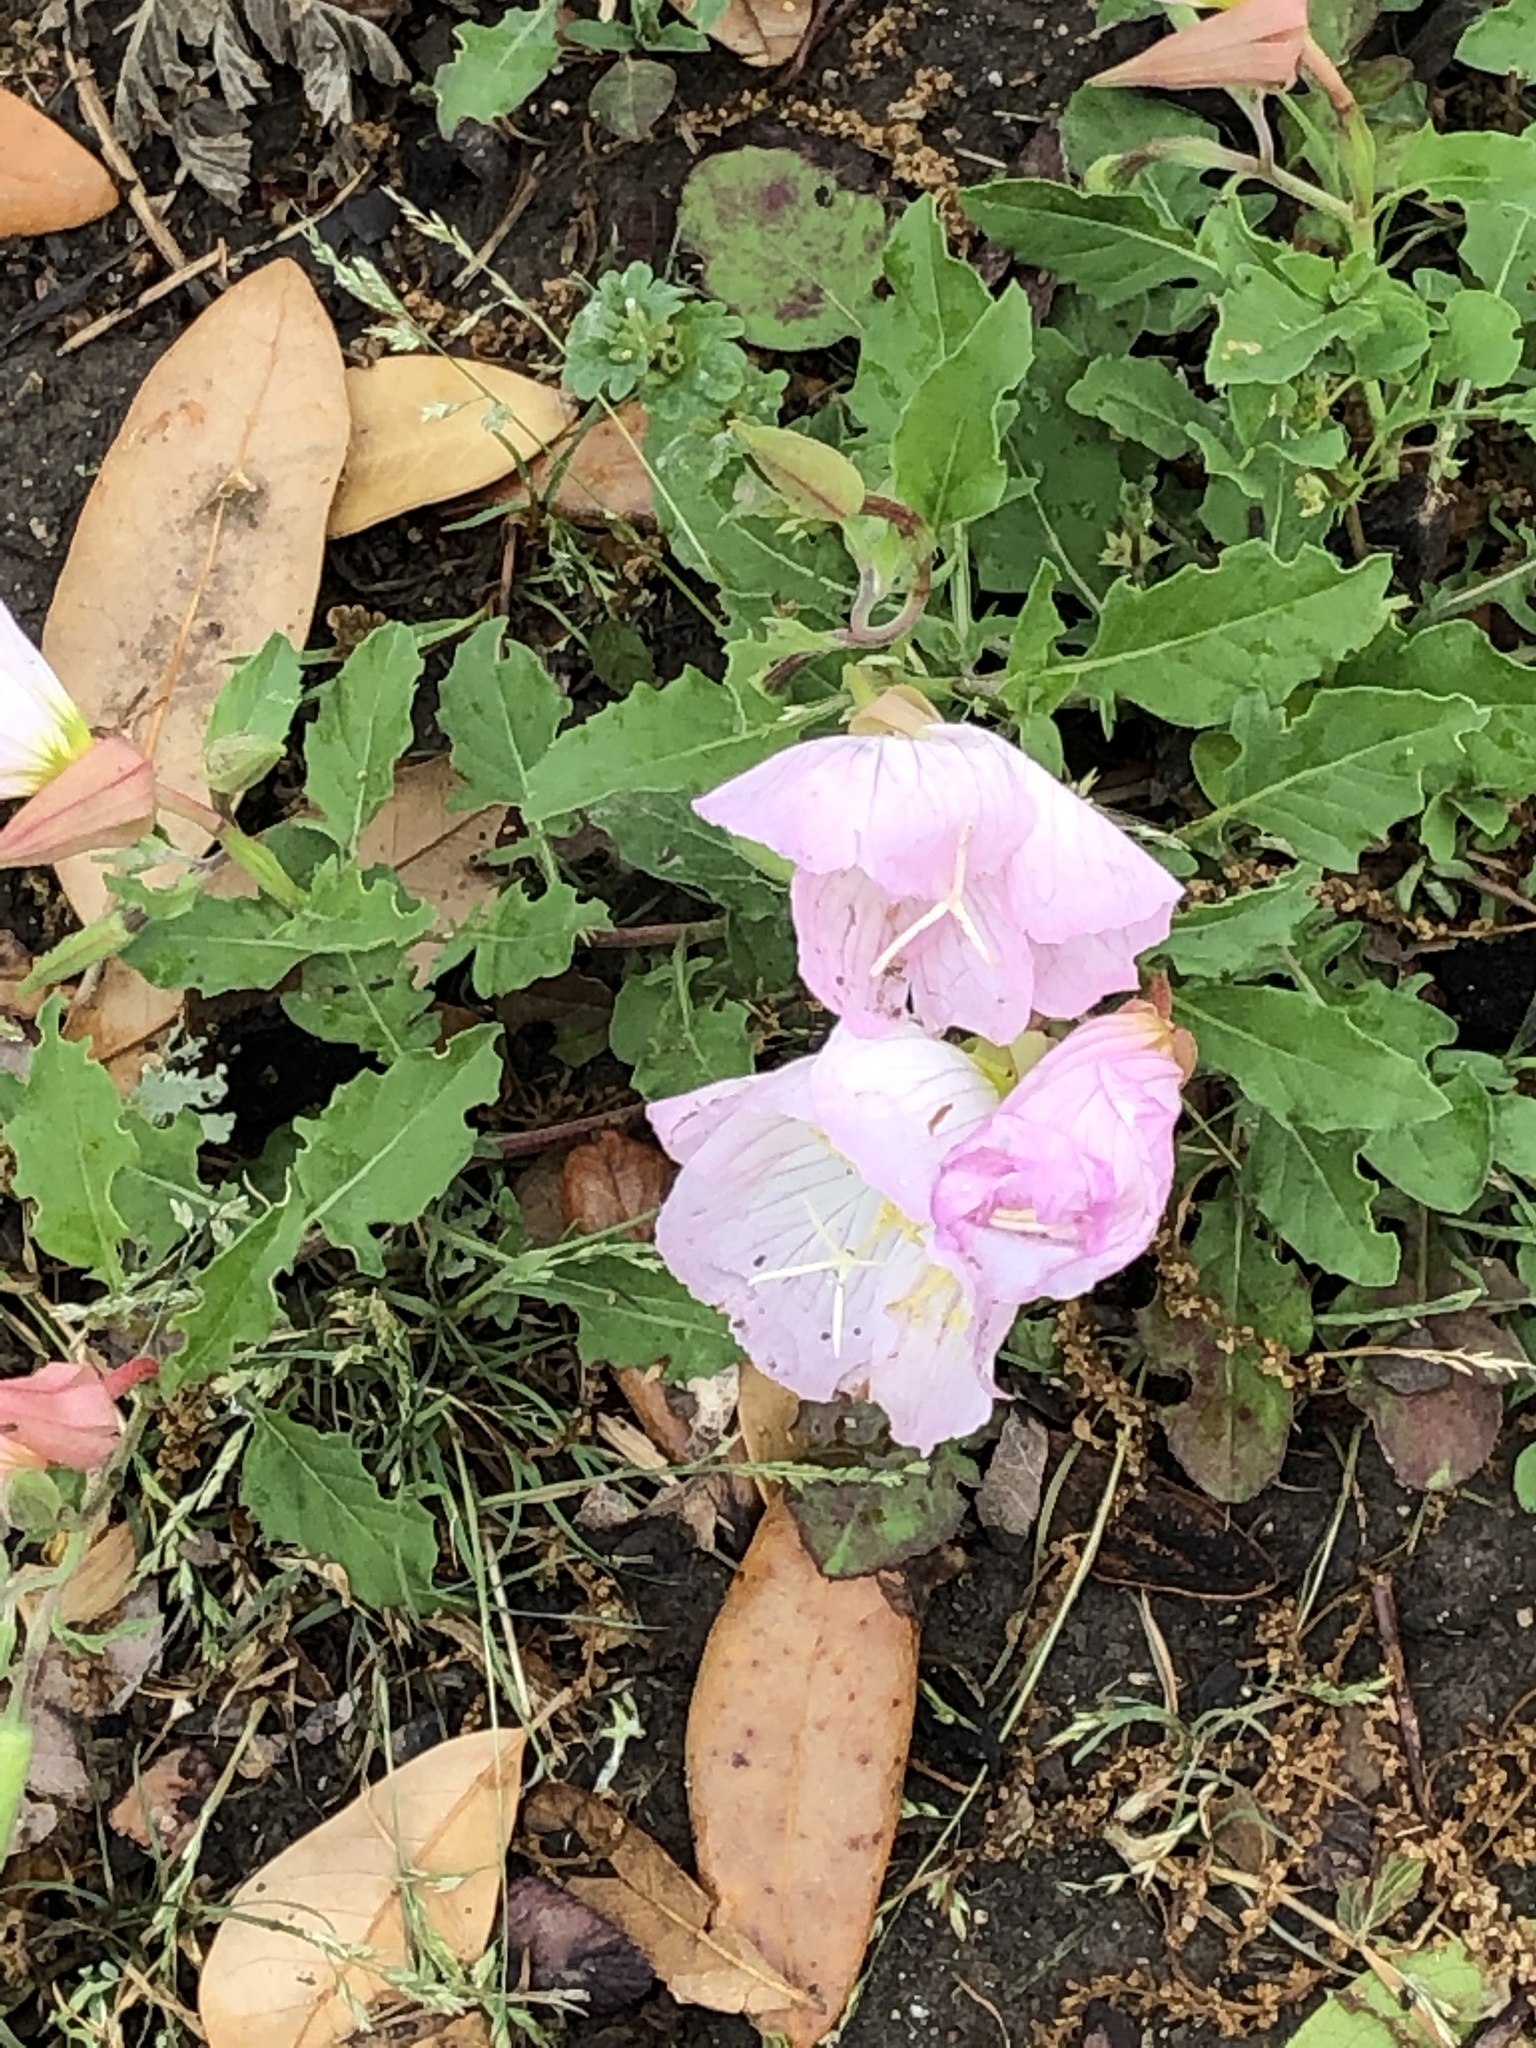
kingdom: Plantae
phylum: Tracheophyta
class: Magnoliopsida
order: Myrtales
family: Onagraceae
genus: Oenothera
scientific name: Oenothera speciosa
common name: White evening-primrose
